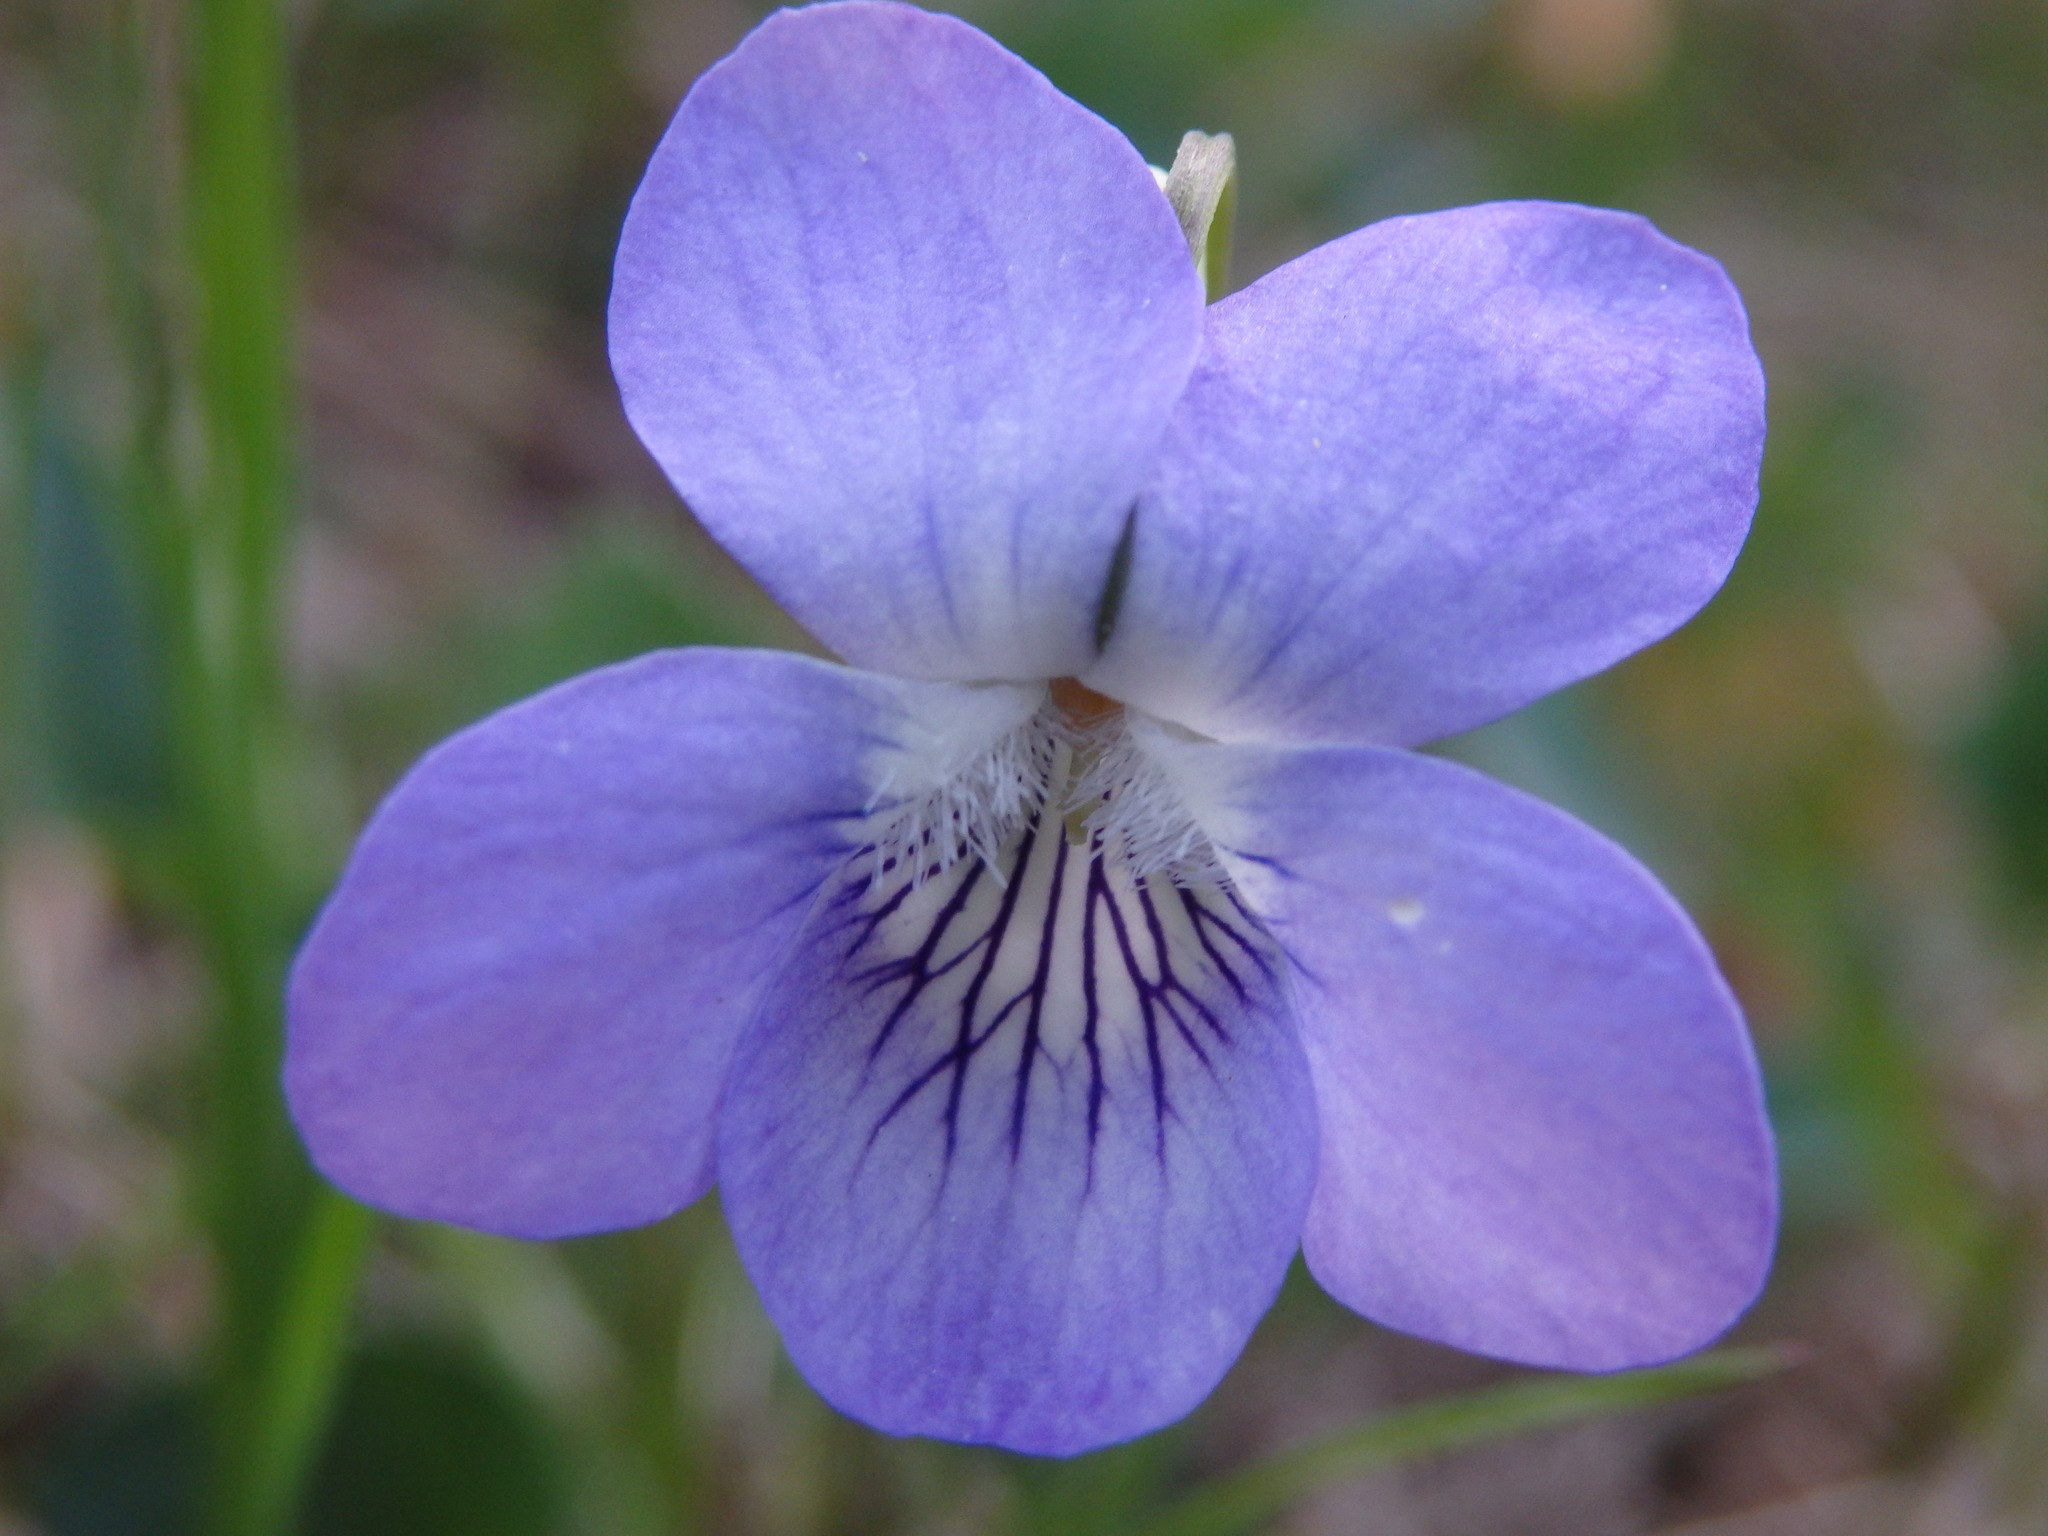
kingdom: Plantae
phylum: Tracheophyta
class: Magnoliopsida
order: Malpighiales
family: Violaceae
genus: Viola
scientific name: Viola riviniana
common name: Common dog-violet
